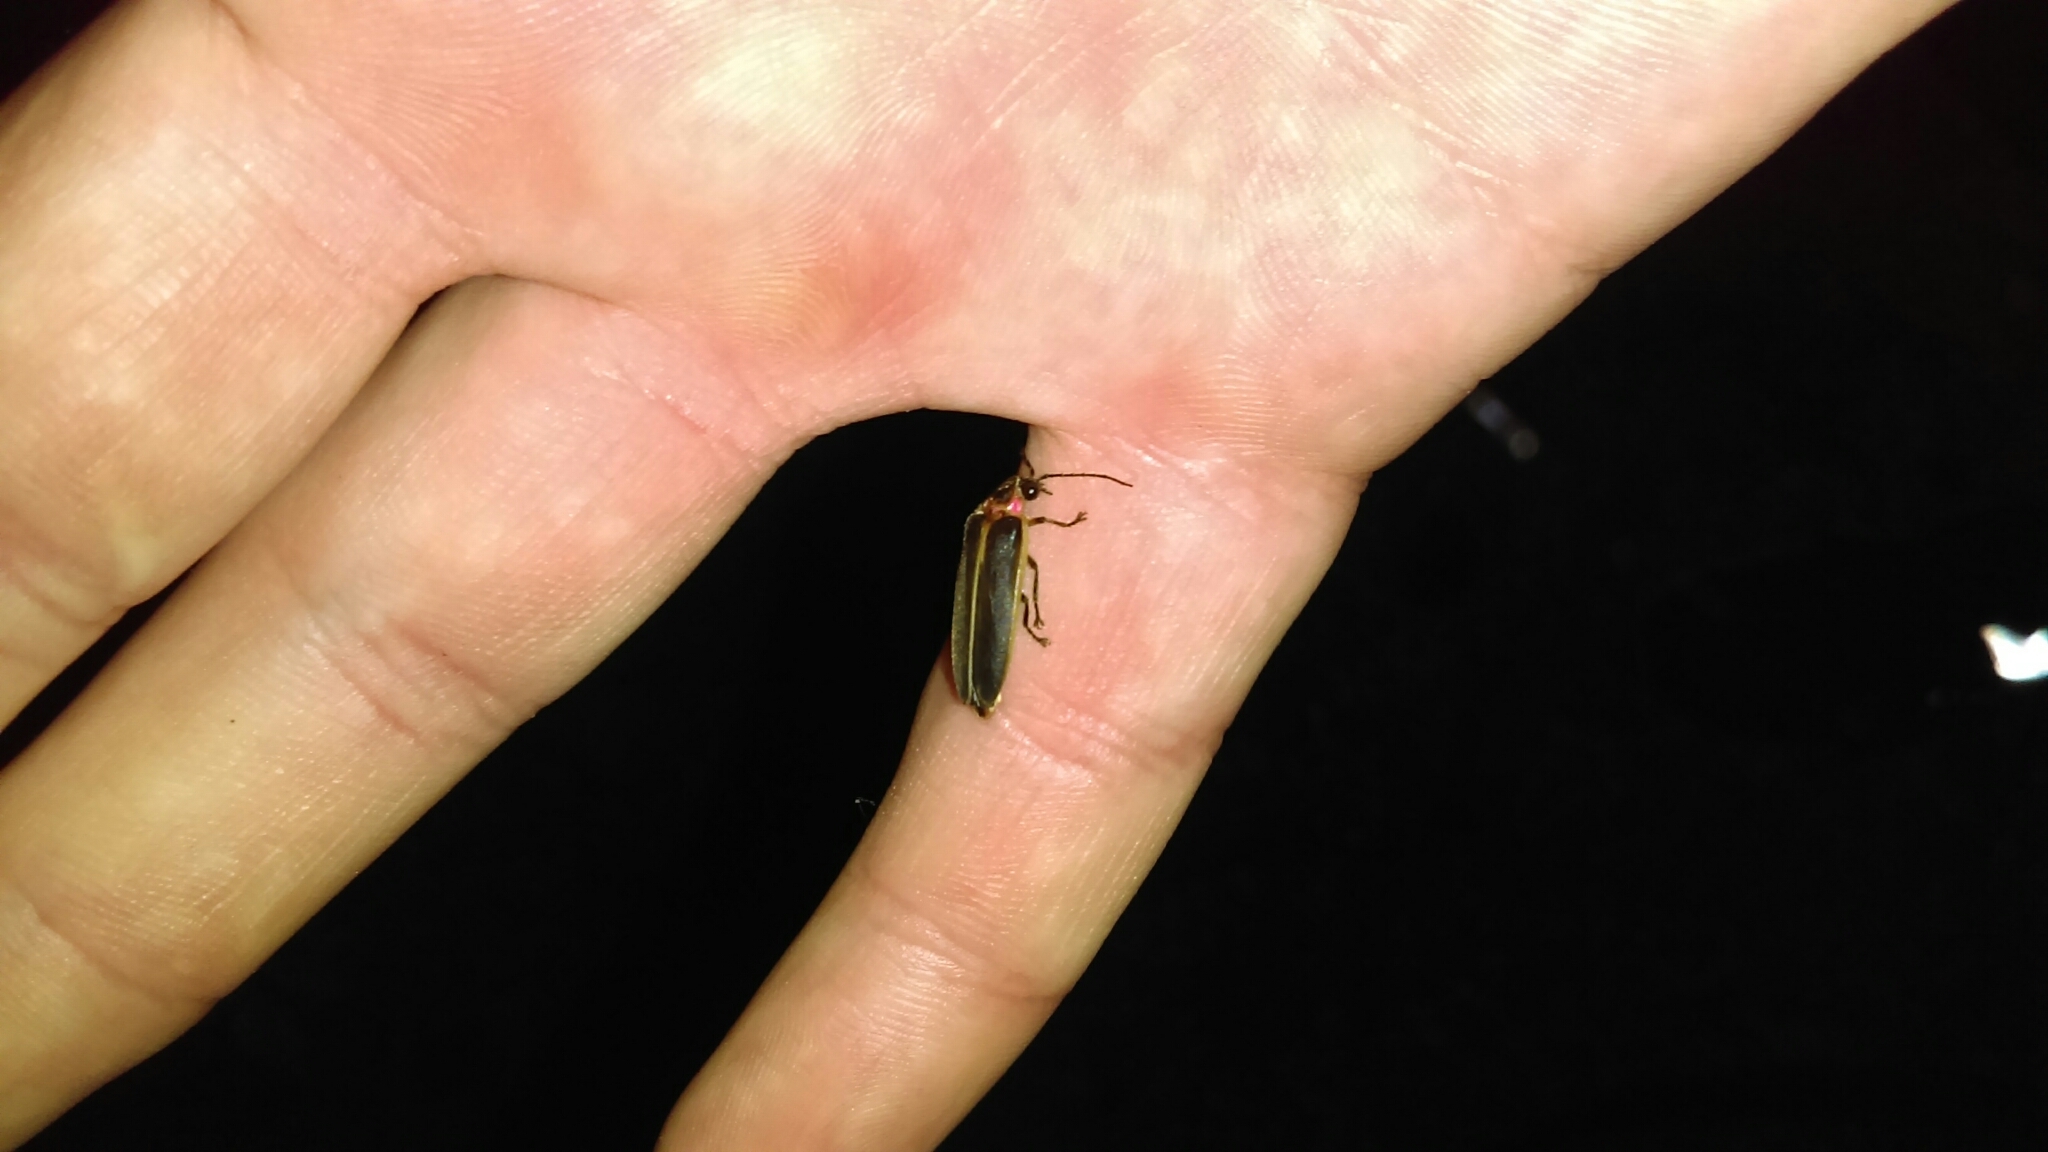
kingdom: Animalia
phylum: Arthropoda
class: Insecta
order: Coleoptera
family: Lampyridae
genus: Photinus
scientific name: Photinus pyralis
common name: Big dipper firefly
